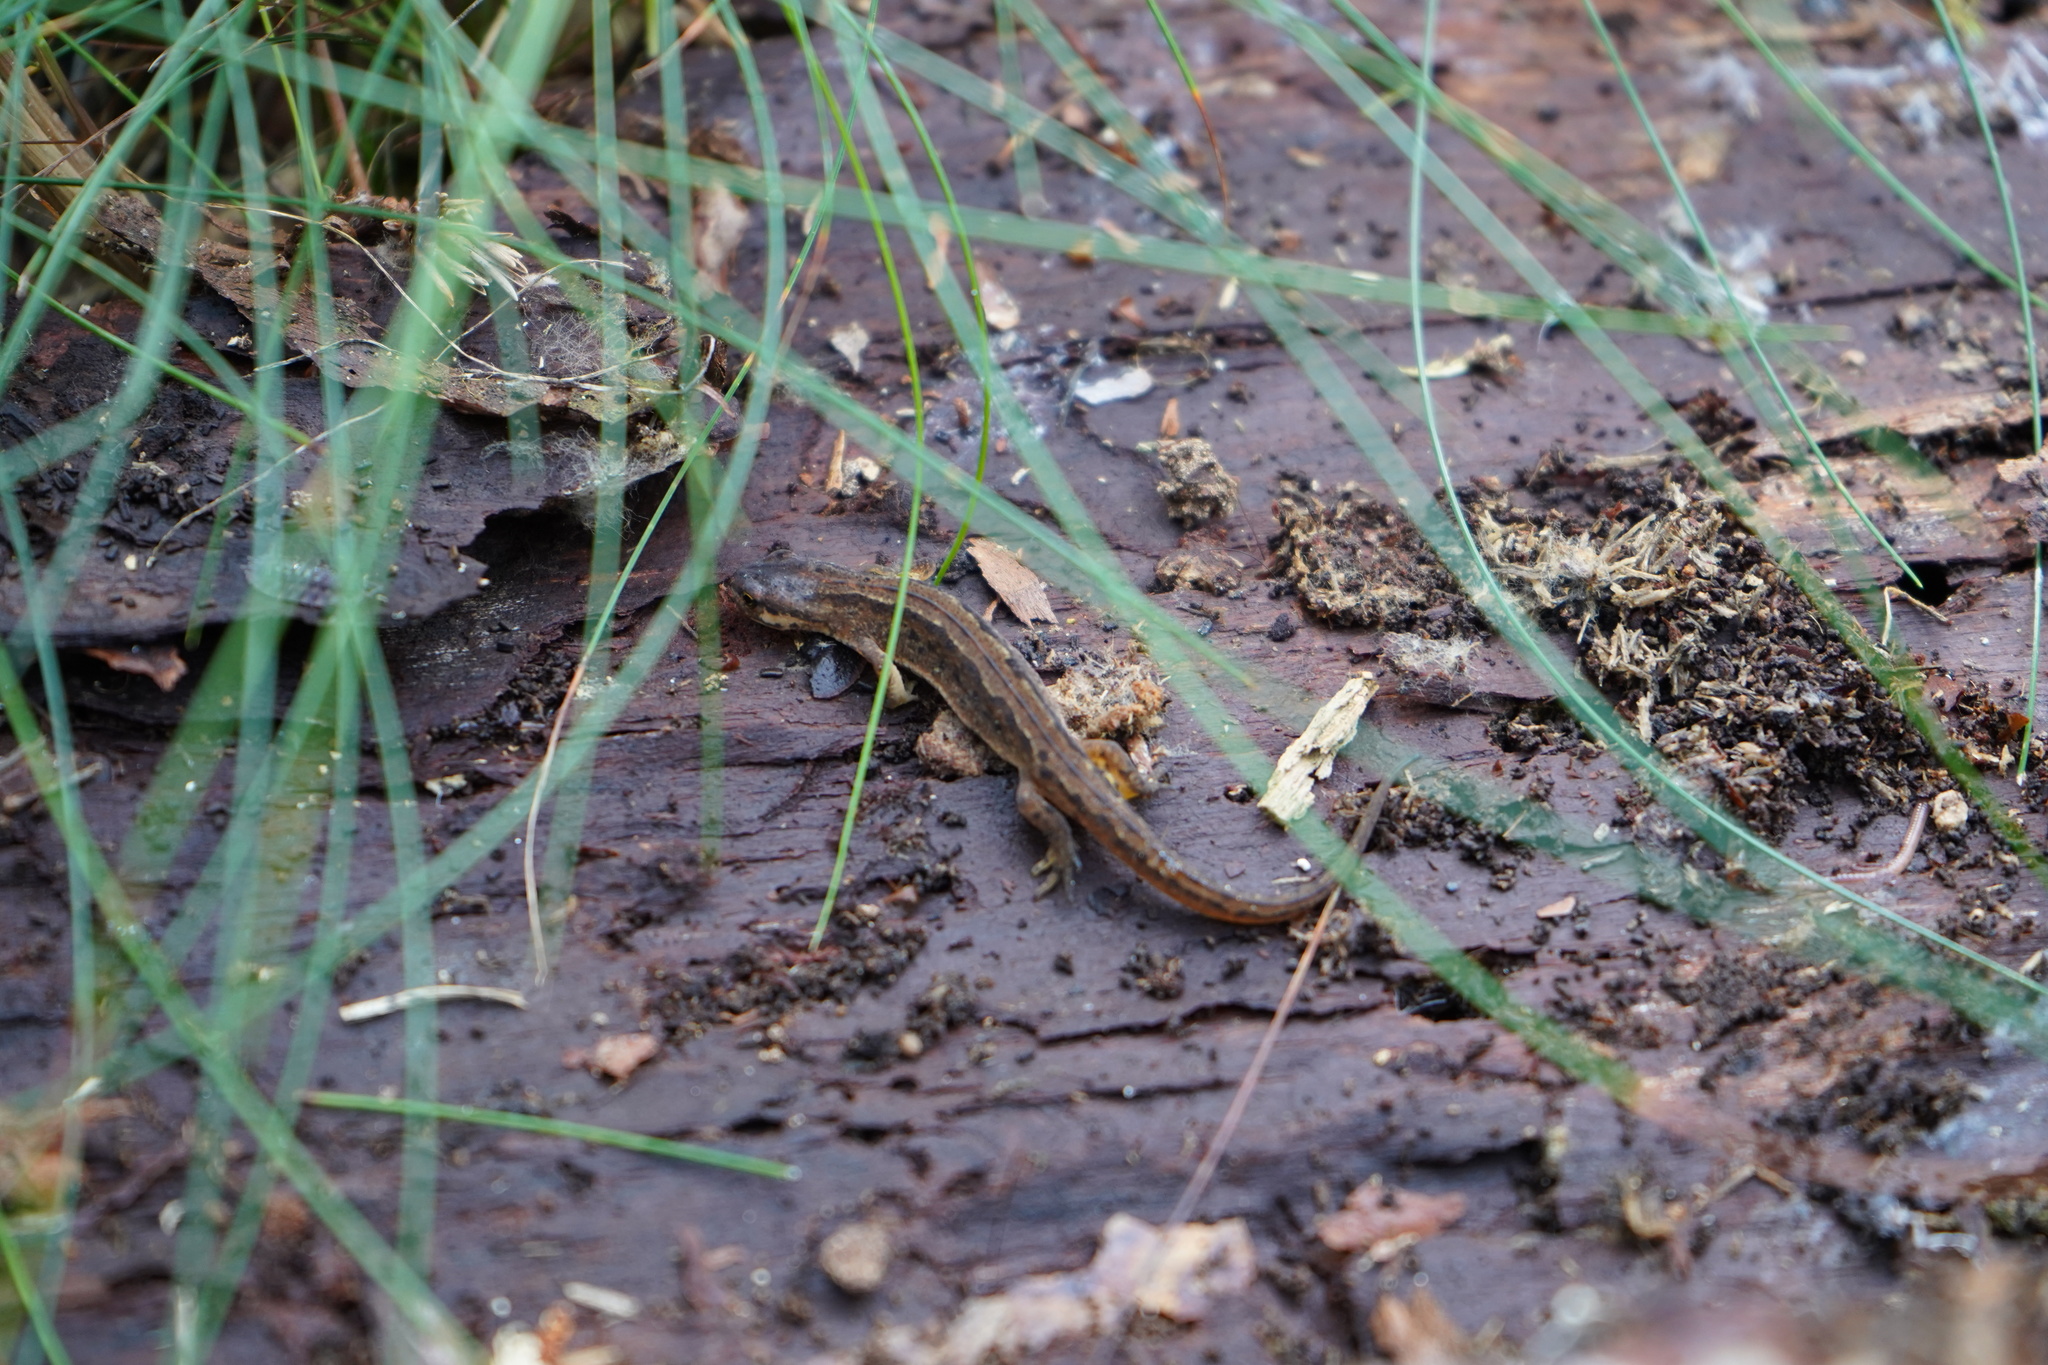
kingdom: Animalia
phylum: Chordata
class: Amphibia
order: Caudata
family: Salamandridae
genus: Lissotriton
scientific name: Lissotriton vulgaris
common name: Smooth newt
